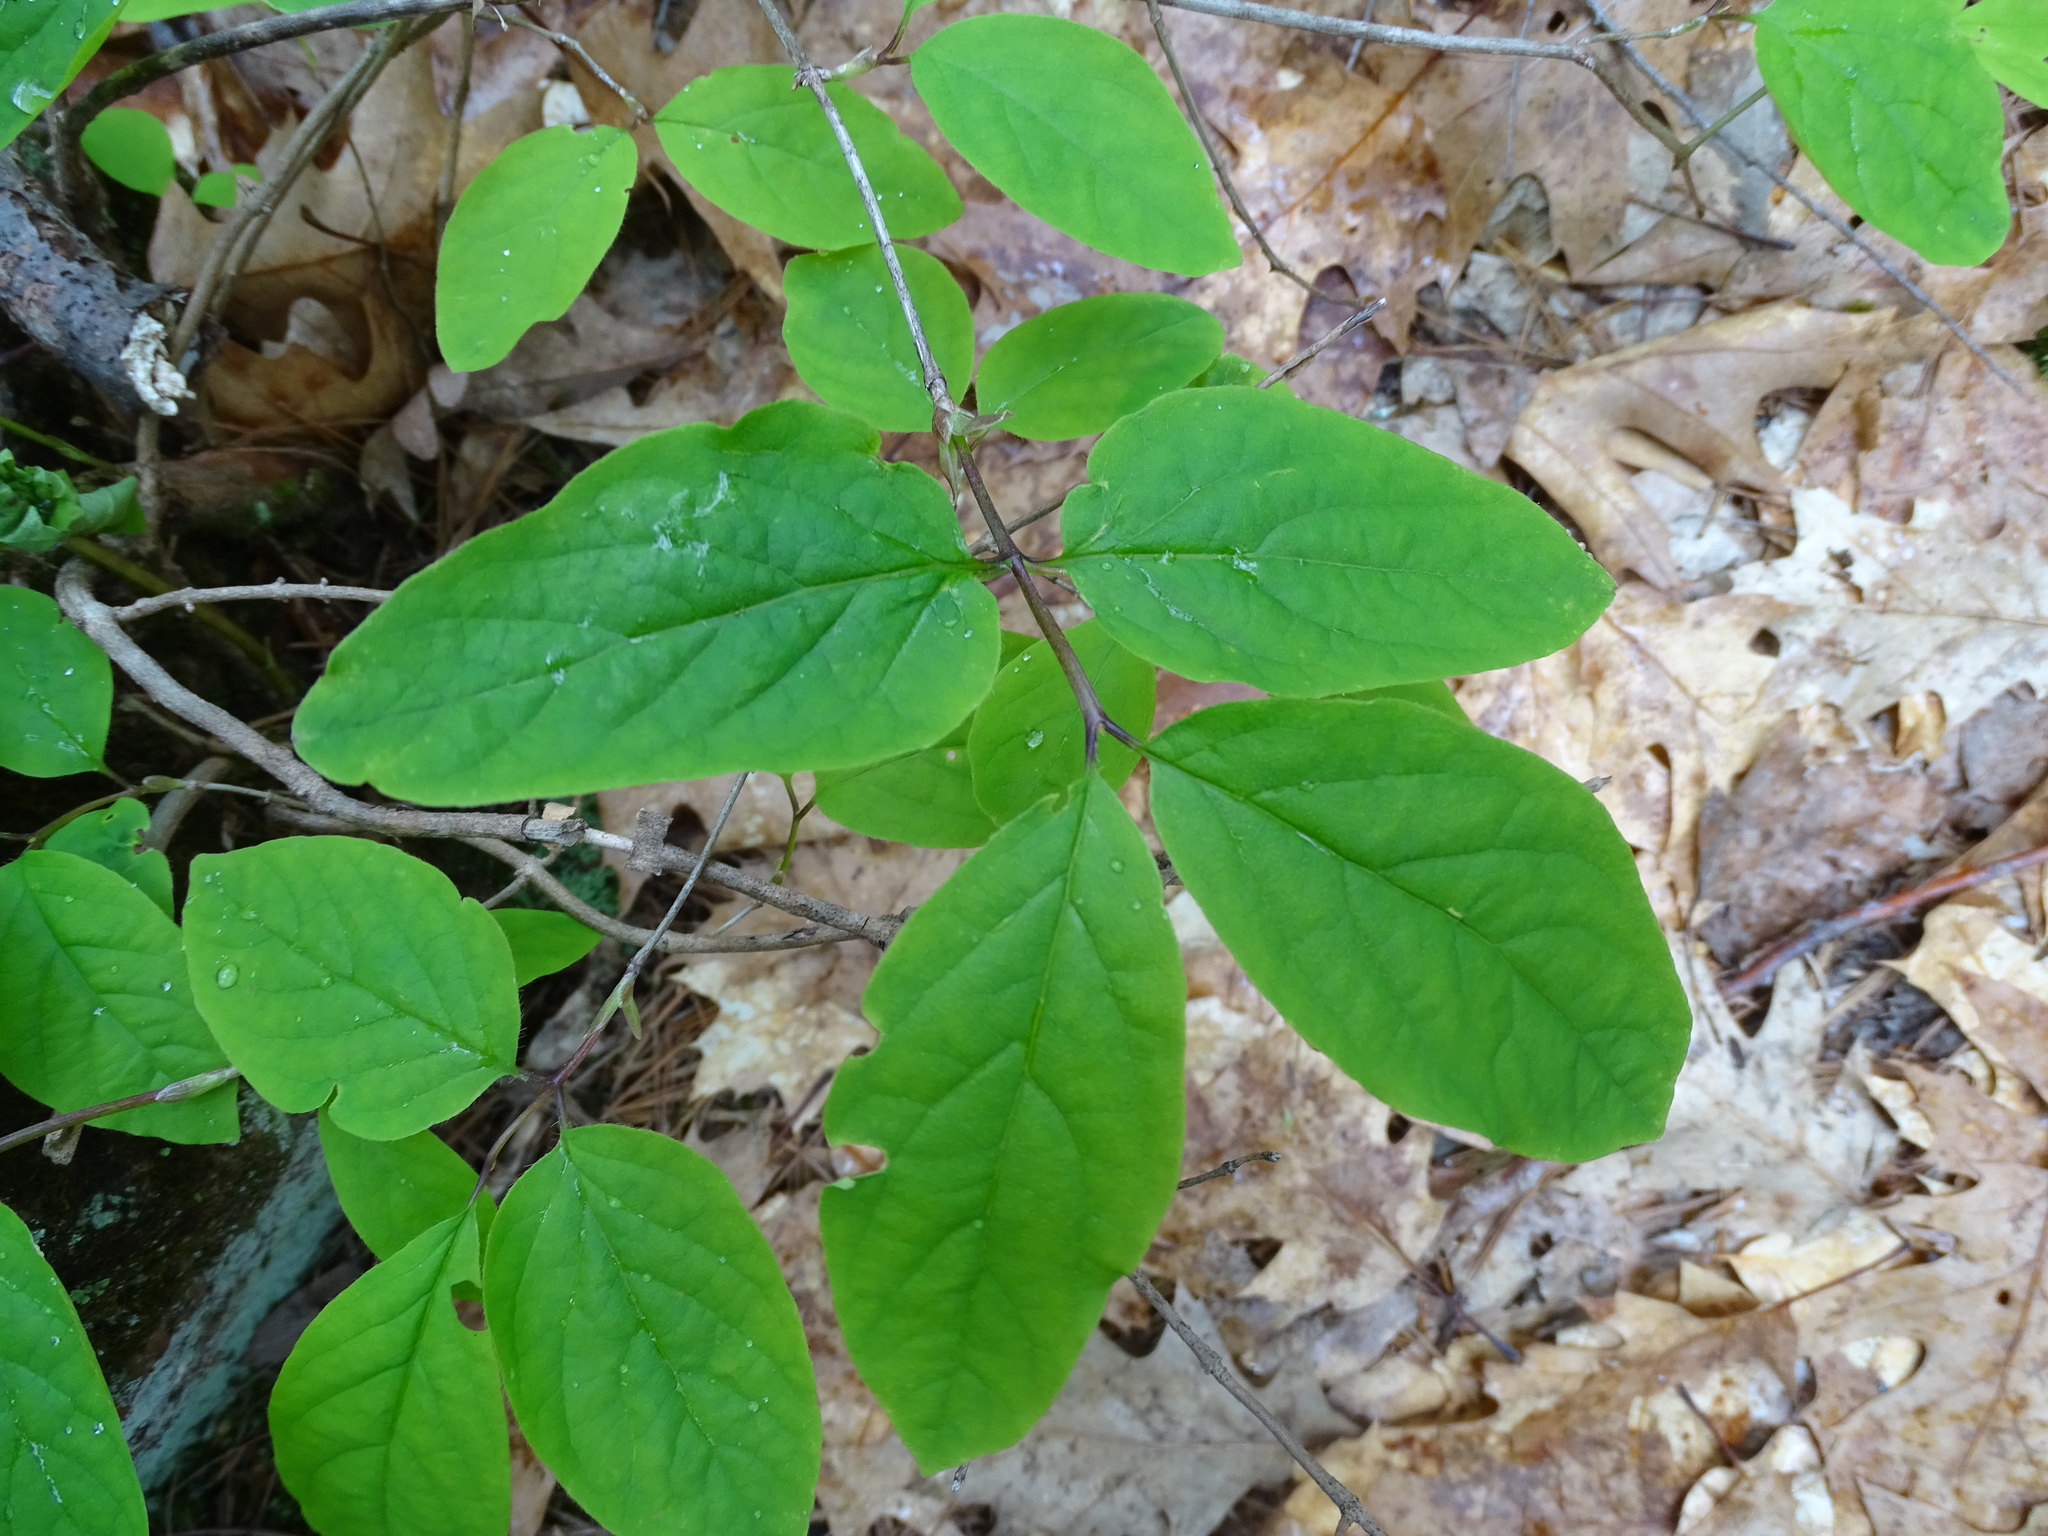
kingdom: Plantae
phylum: Tracheophyta
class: Magnoliopsida
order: Dipsacales
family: Caprifoliaceae
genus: Lonicera
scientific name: Lonicera canadensis
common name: American fly-honeysuckle
